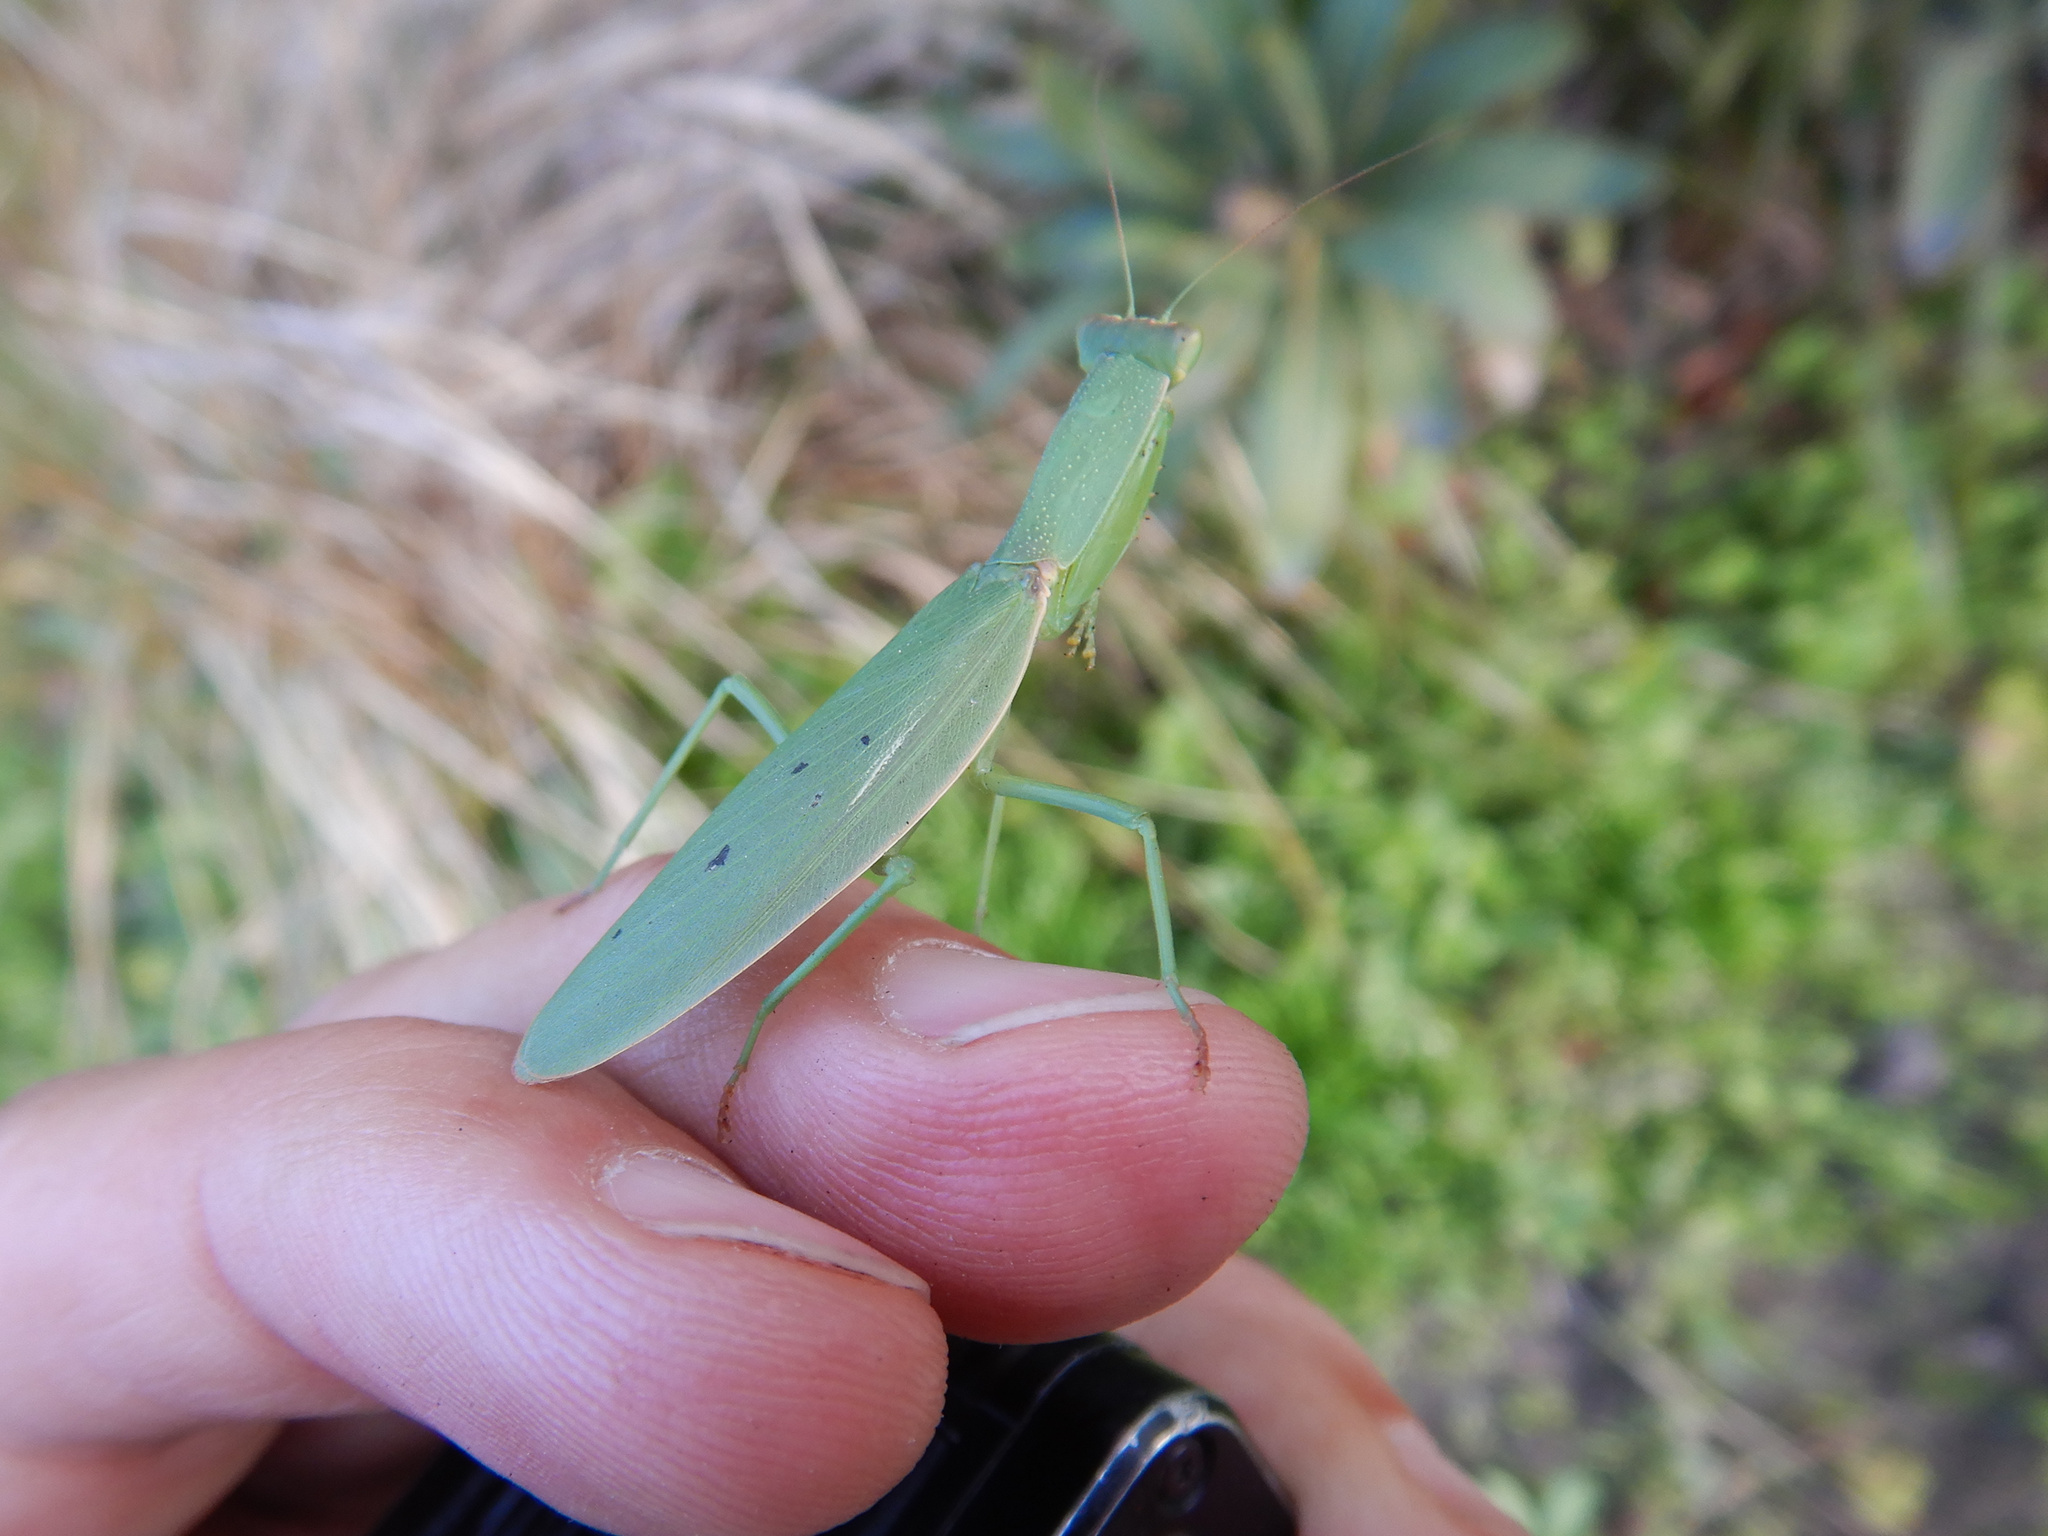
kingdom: Animalia
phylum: Arthropoda
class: Insecta
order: Mantodea
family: Mantidae
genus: Orthodera
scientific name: Orthodera novaezealandiae
